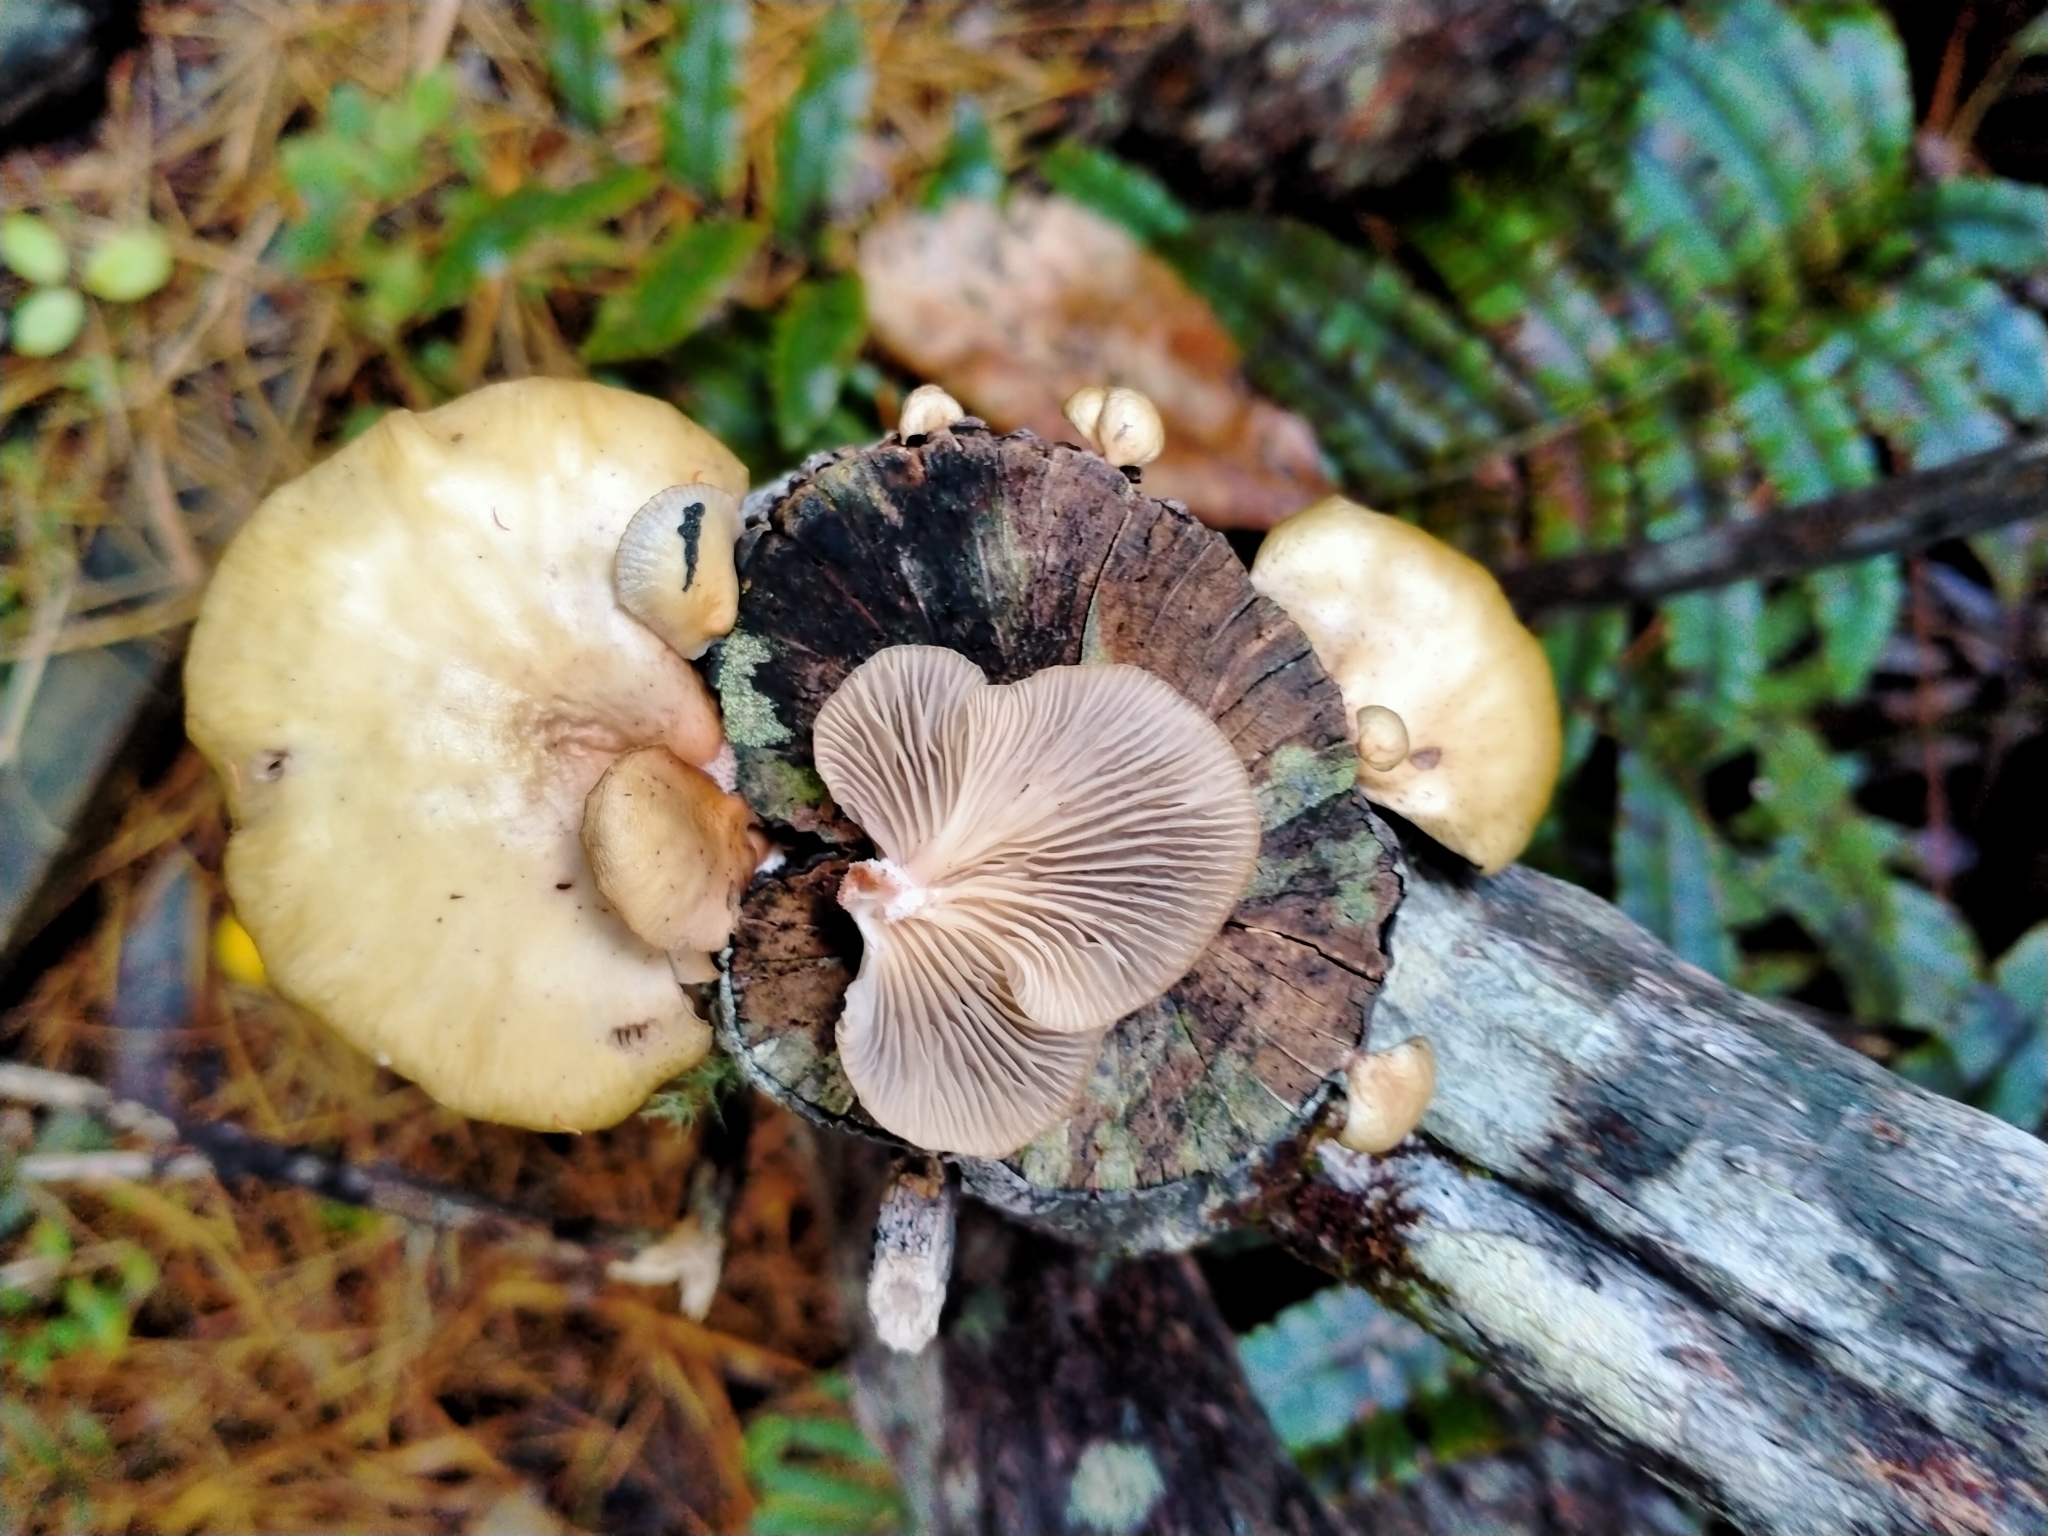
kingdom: Fungi
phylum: Basidiomycota
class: Agaricomycetes
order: Agaricales
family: Mycenaceae
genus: Panellus
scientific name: Panellus longinquus
